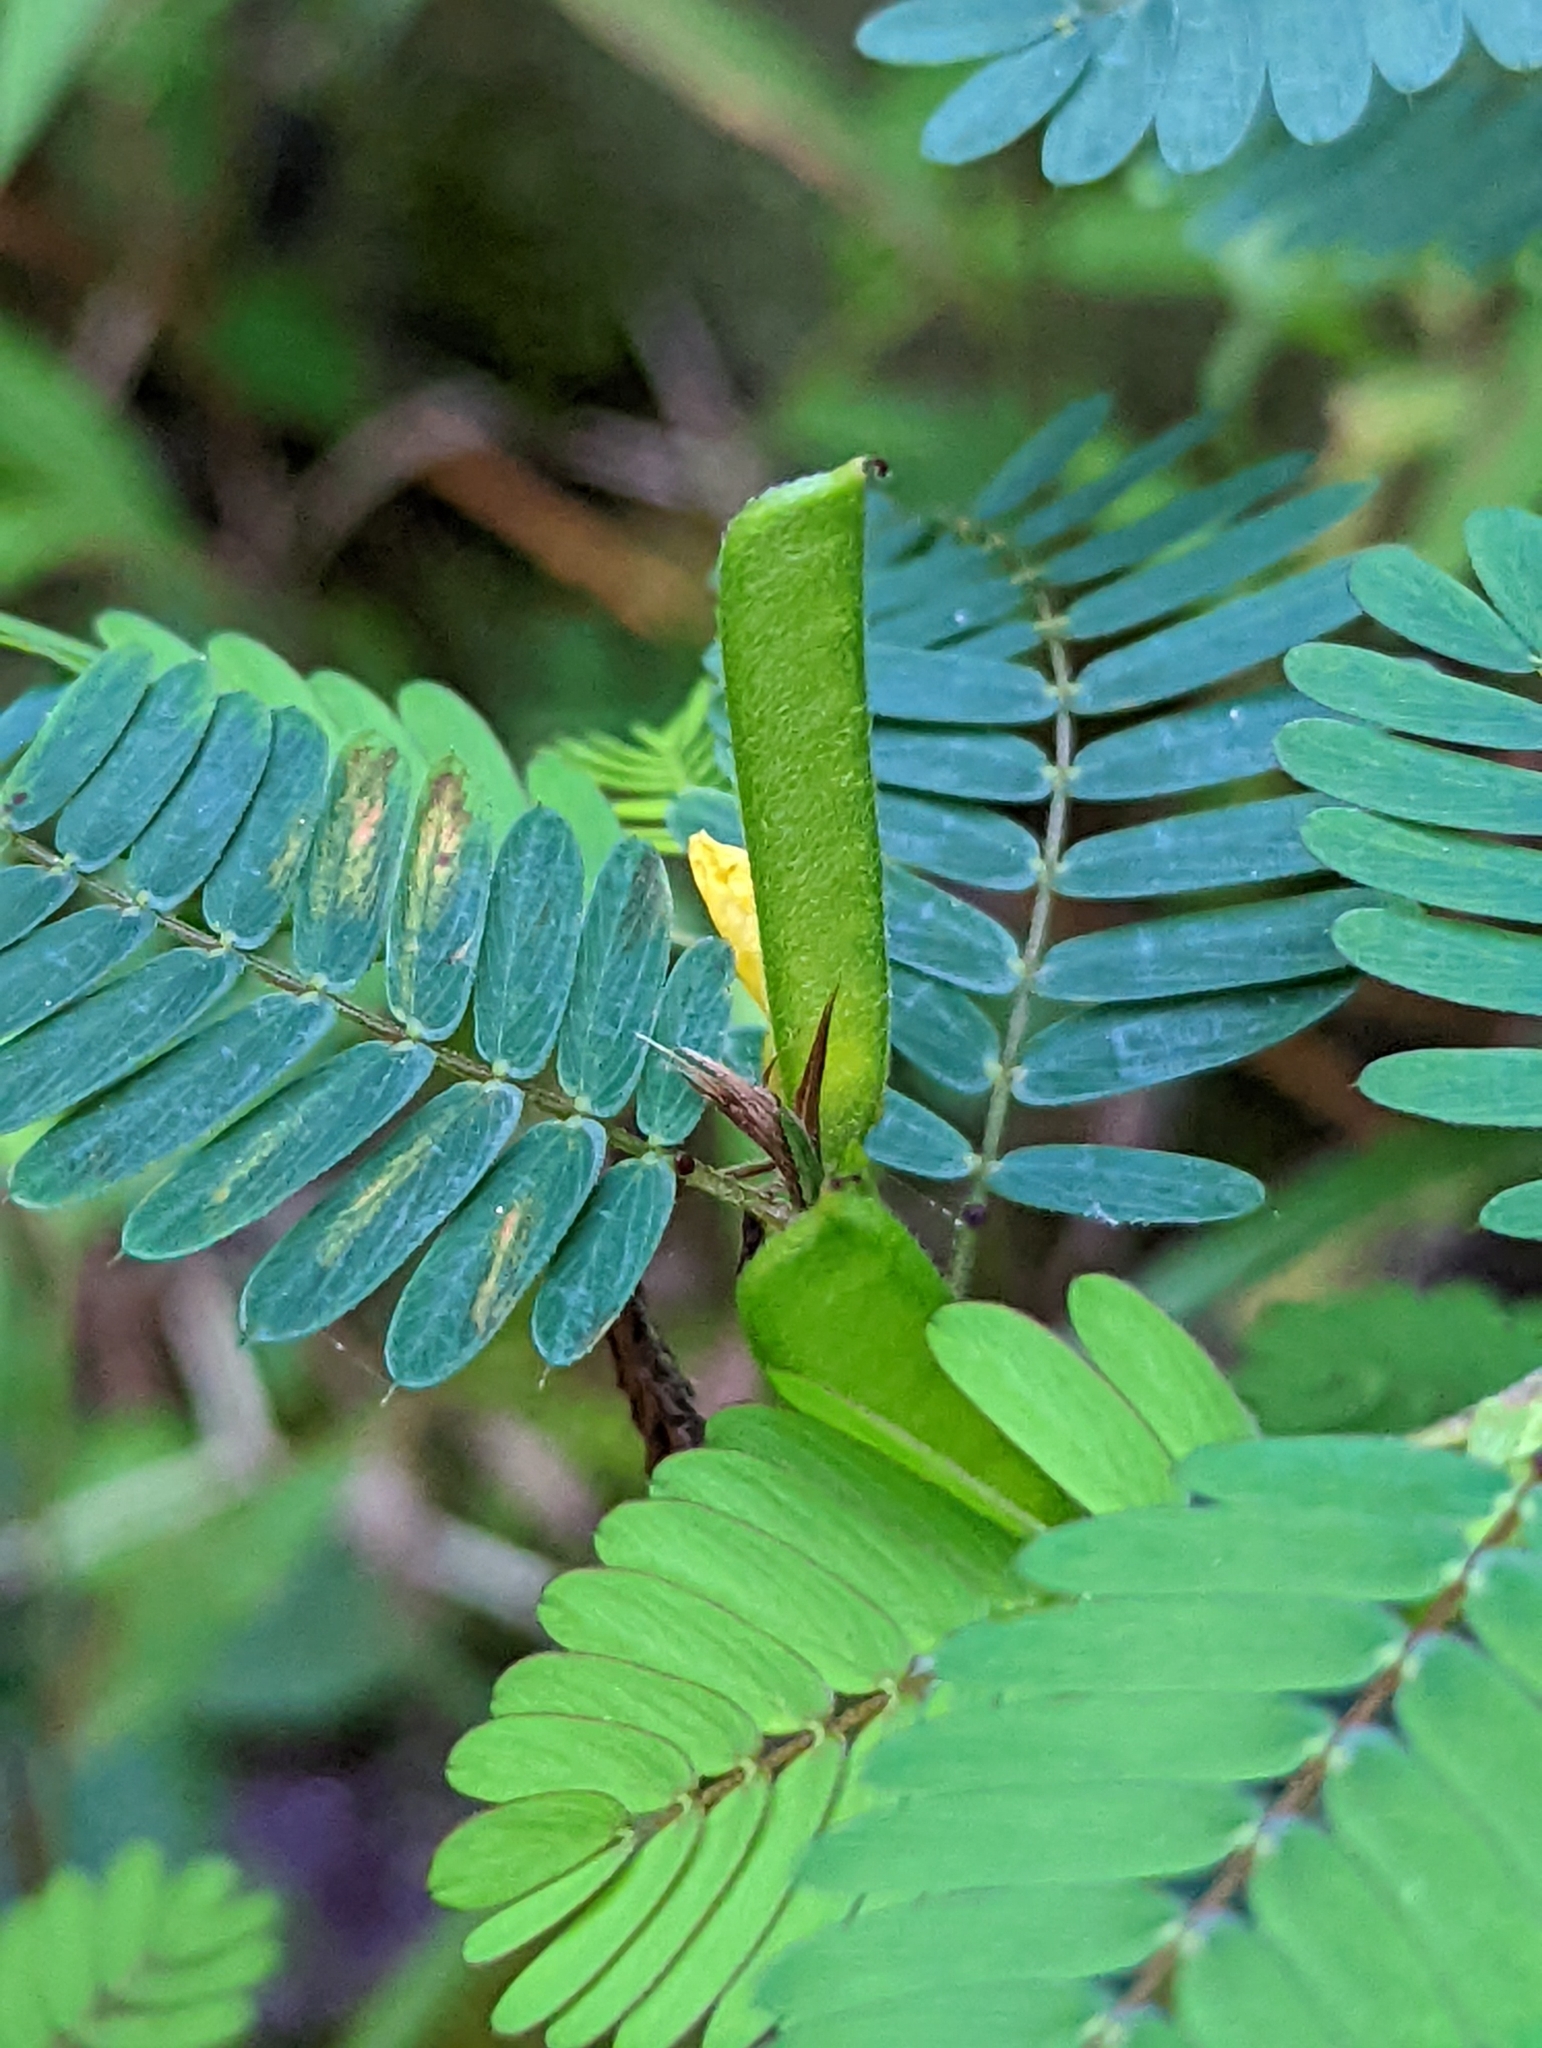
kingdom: Plantae
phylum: Tracheophyta
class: Magnoliopsida
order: Fabales
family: Fabaceae
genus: Chamaecrista
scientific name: Chamaecrista nictitans
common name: Sensitive cassia
